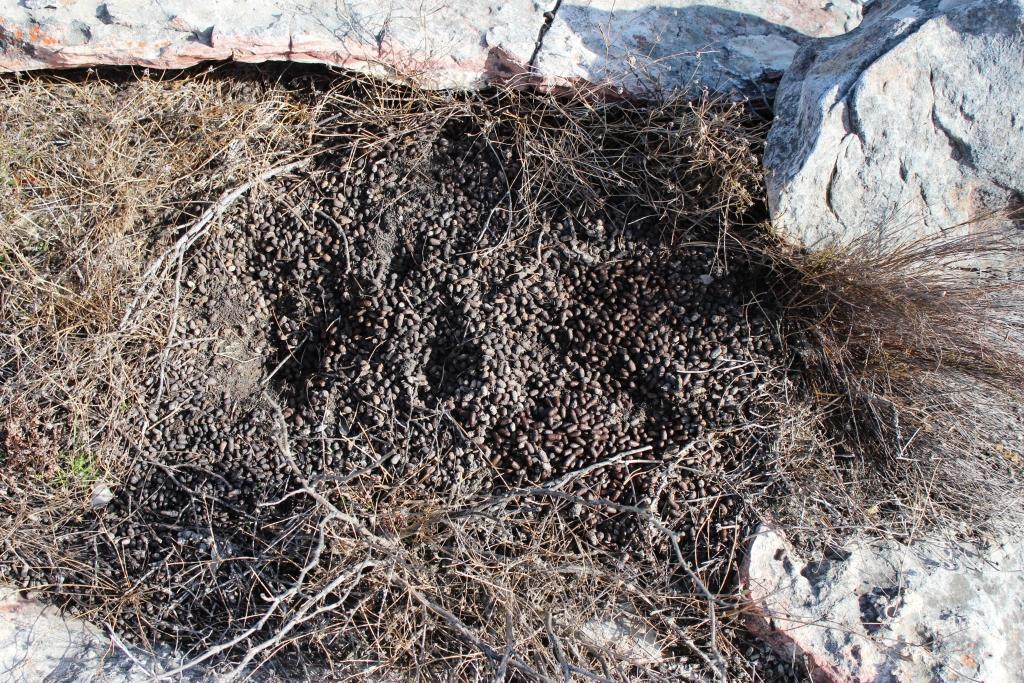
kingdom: Animalia
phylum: Chordata
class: Mammalia
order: Artiodactyla
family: Bovidae
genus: Oreotragus
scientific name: Oreotragus oreotragus
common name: Klipspringer
